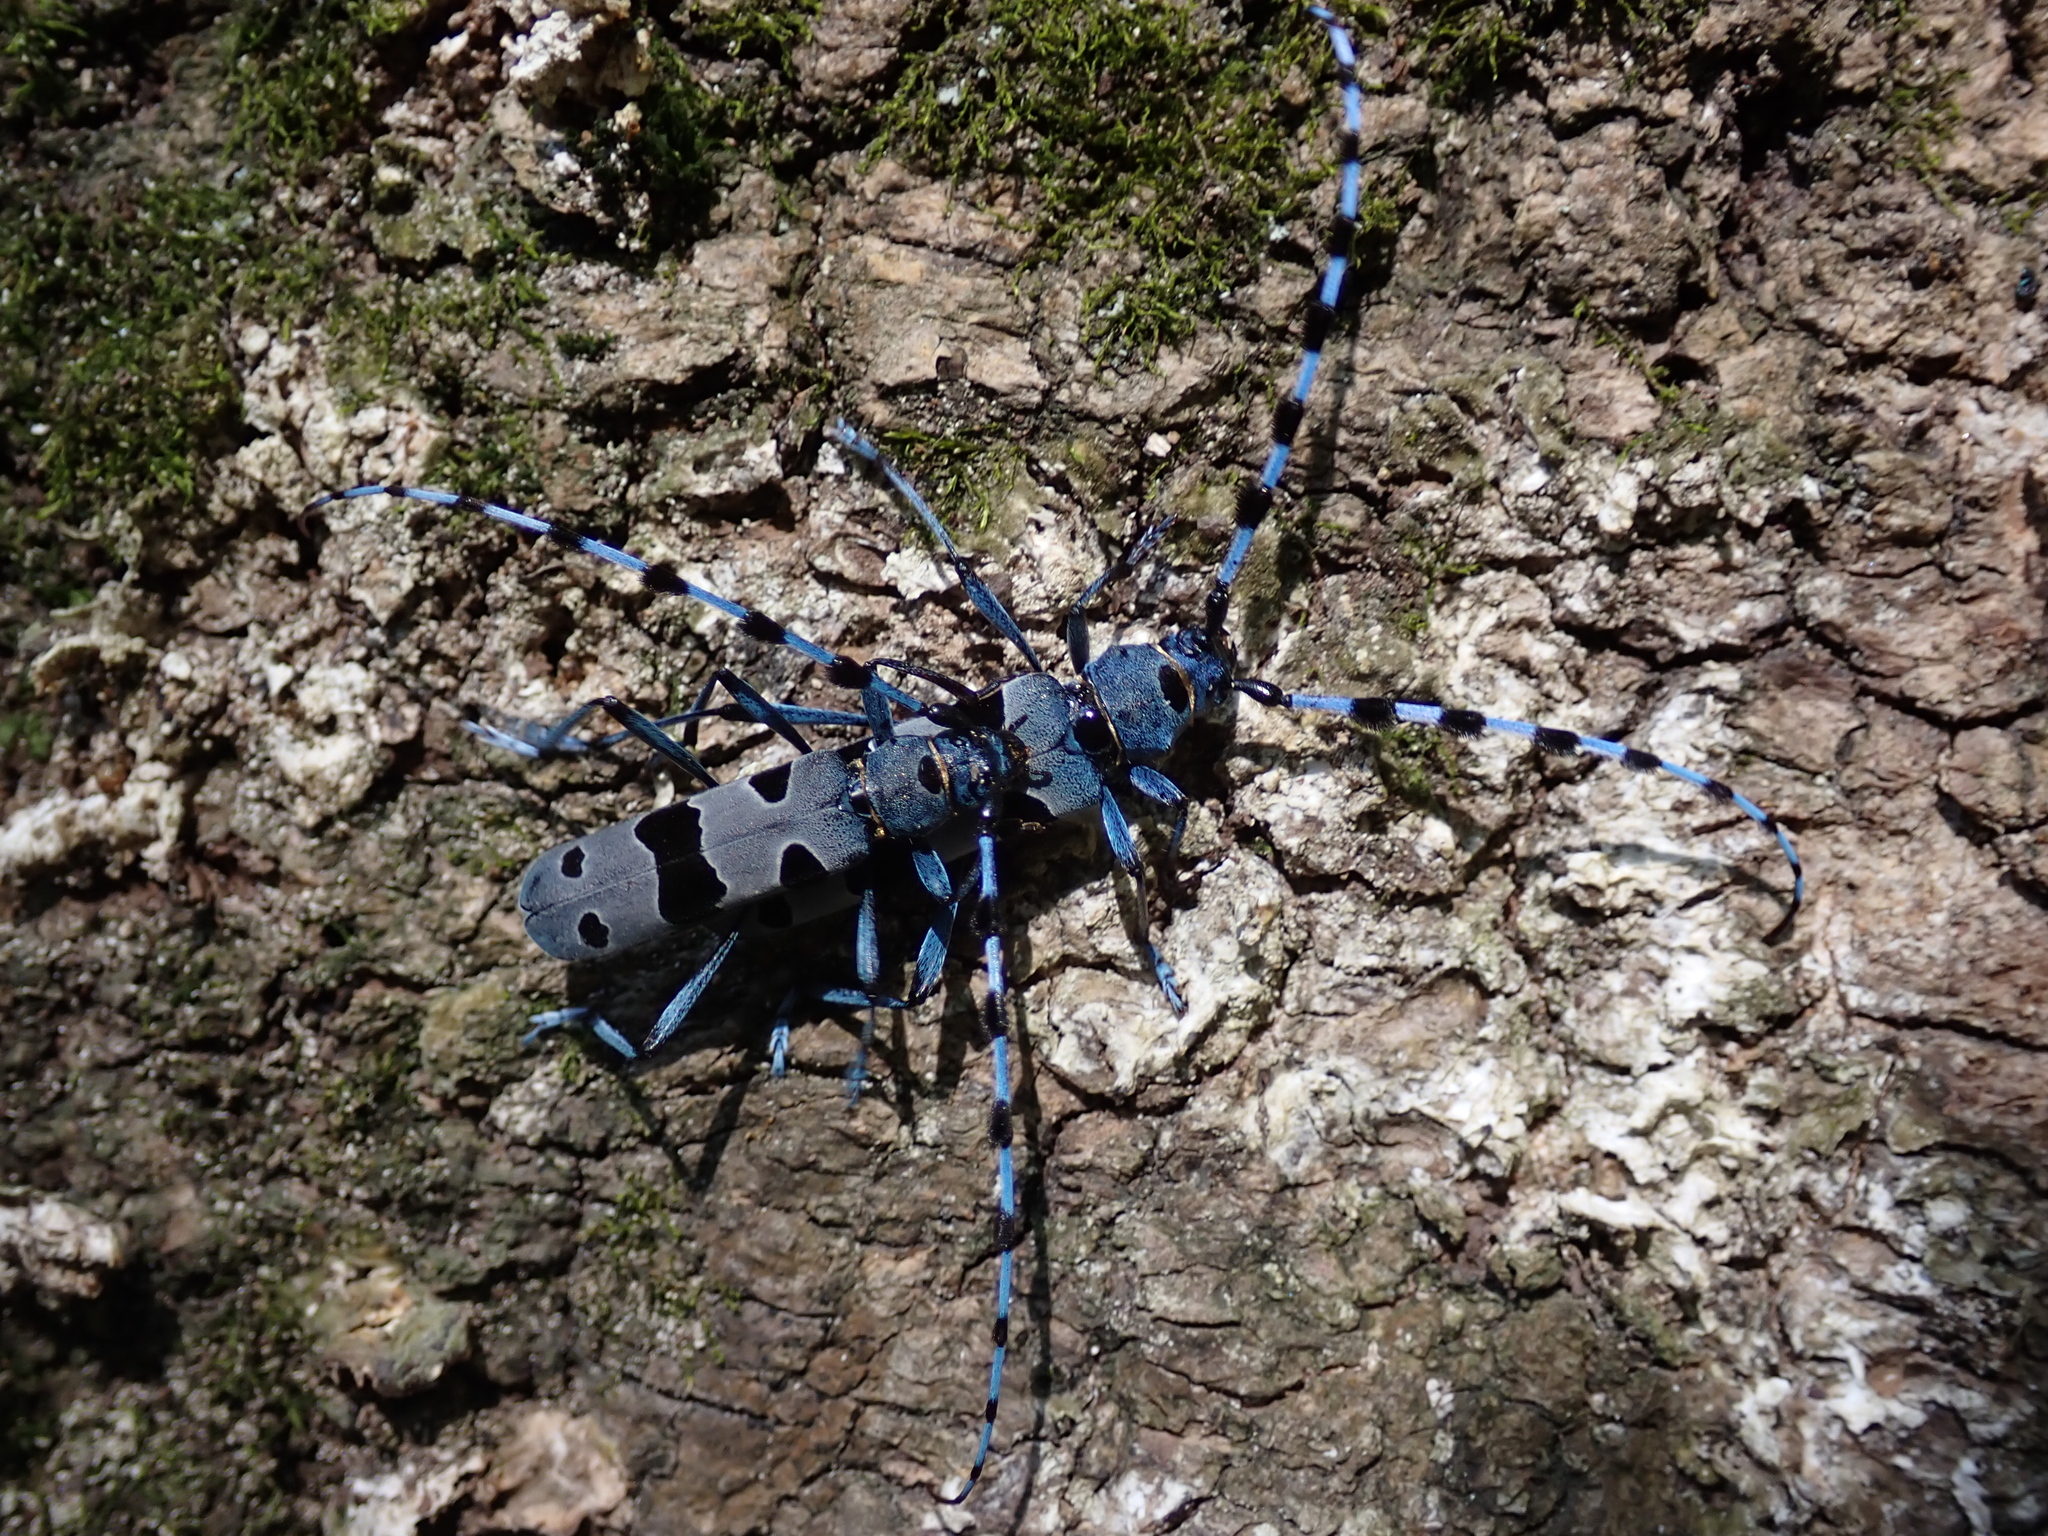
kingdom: Animalia
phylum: Arthropoda
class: Insecta
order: Coleoptera
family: Cerambycidae
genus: Rosalia
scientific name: Rosalia alpina
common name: Rosalia longicorn
